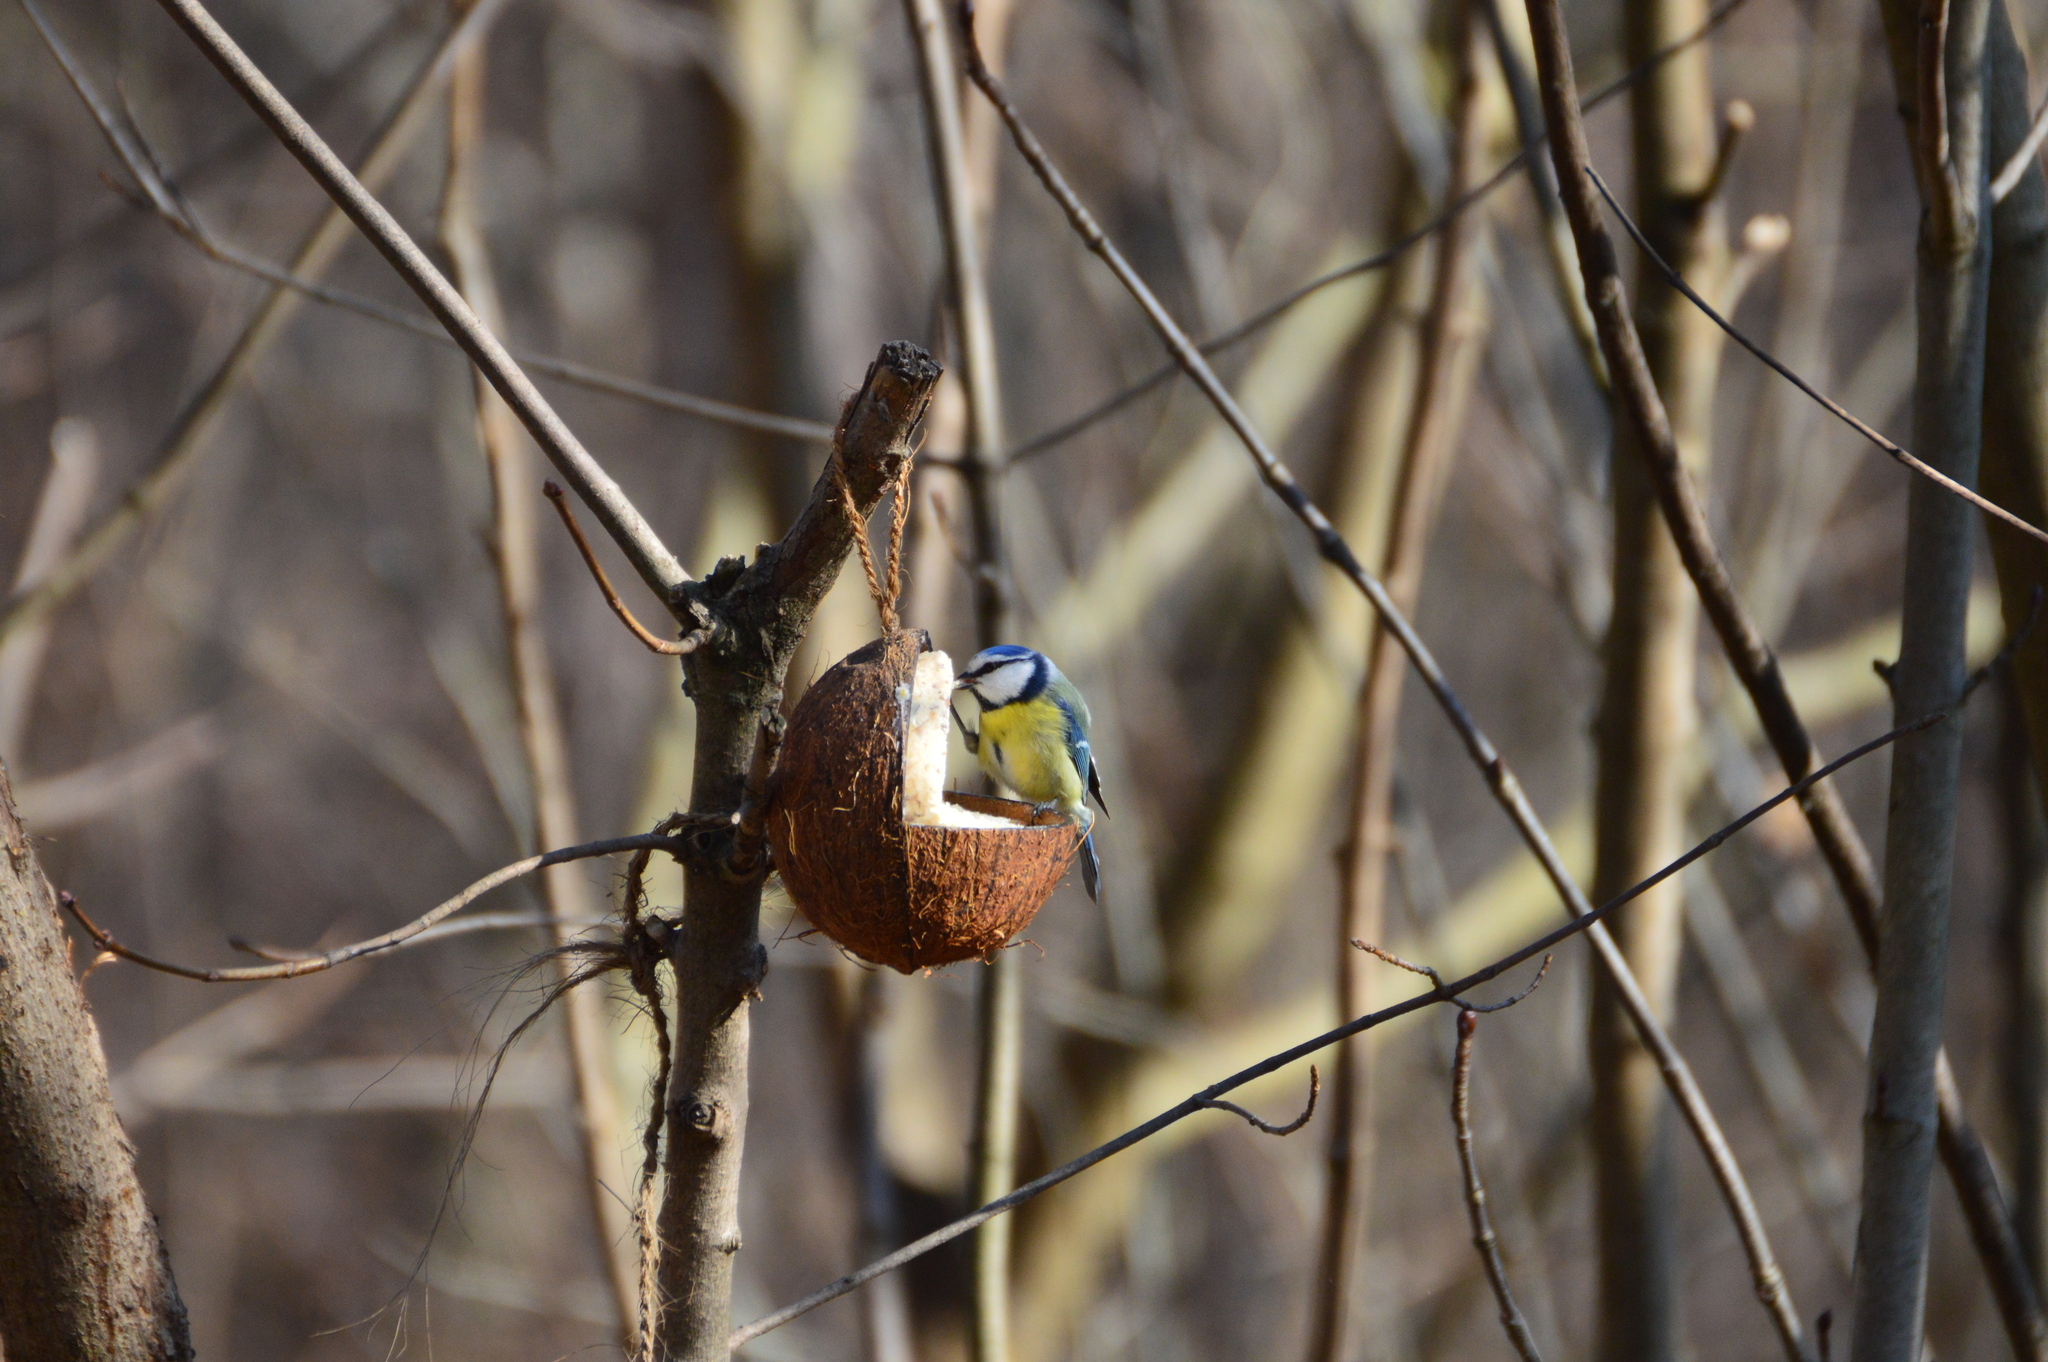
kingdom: Animalia
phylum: Chordata
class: Aves
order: Passeriformes
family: Paridae
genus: Cyanistes
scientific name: Cyanistes caeruleus
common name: Eurasian blue tit
